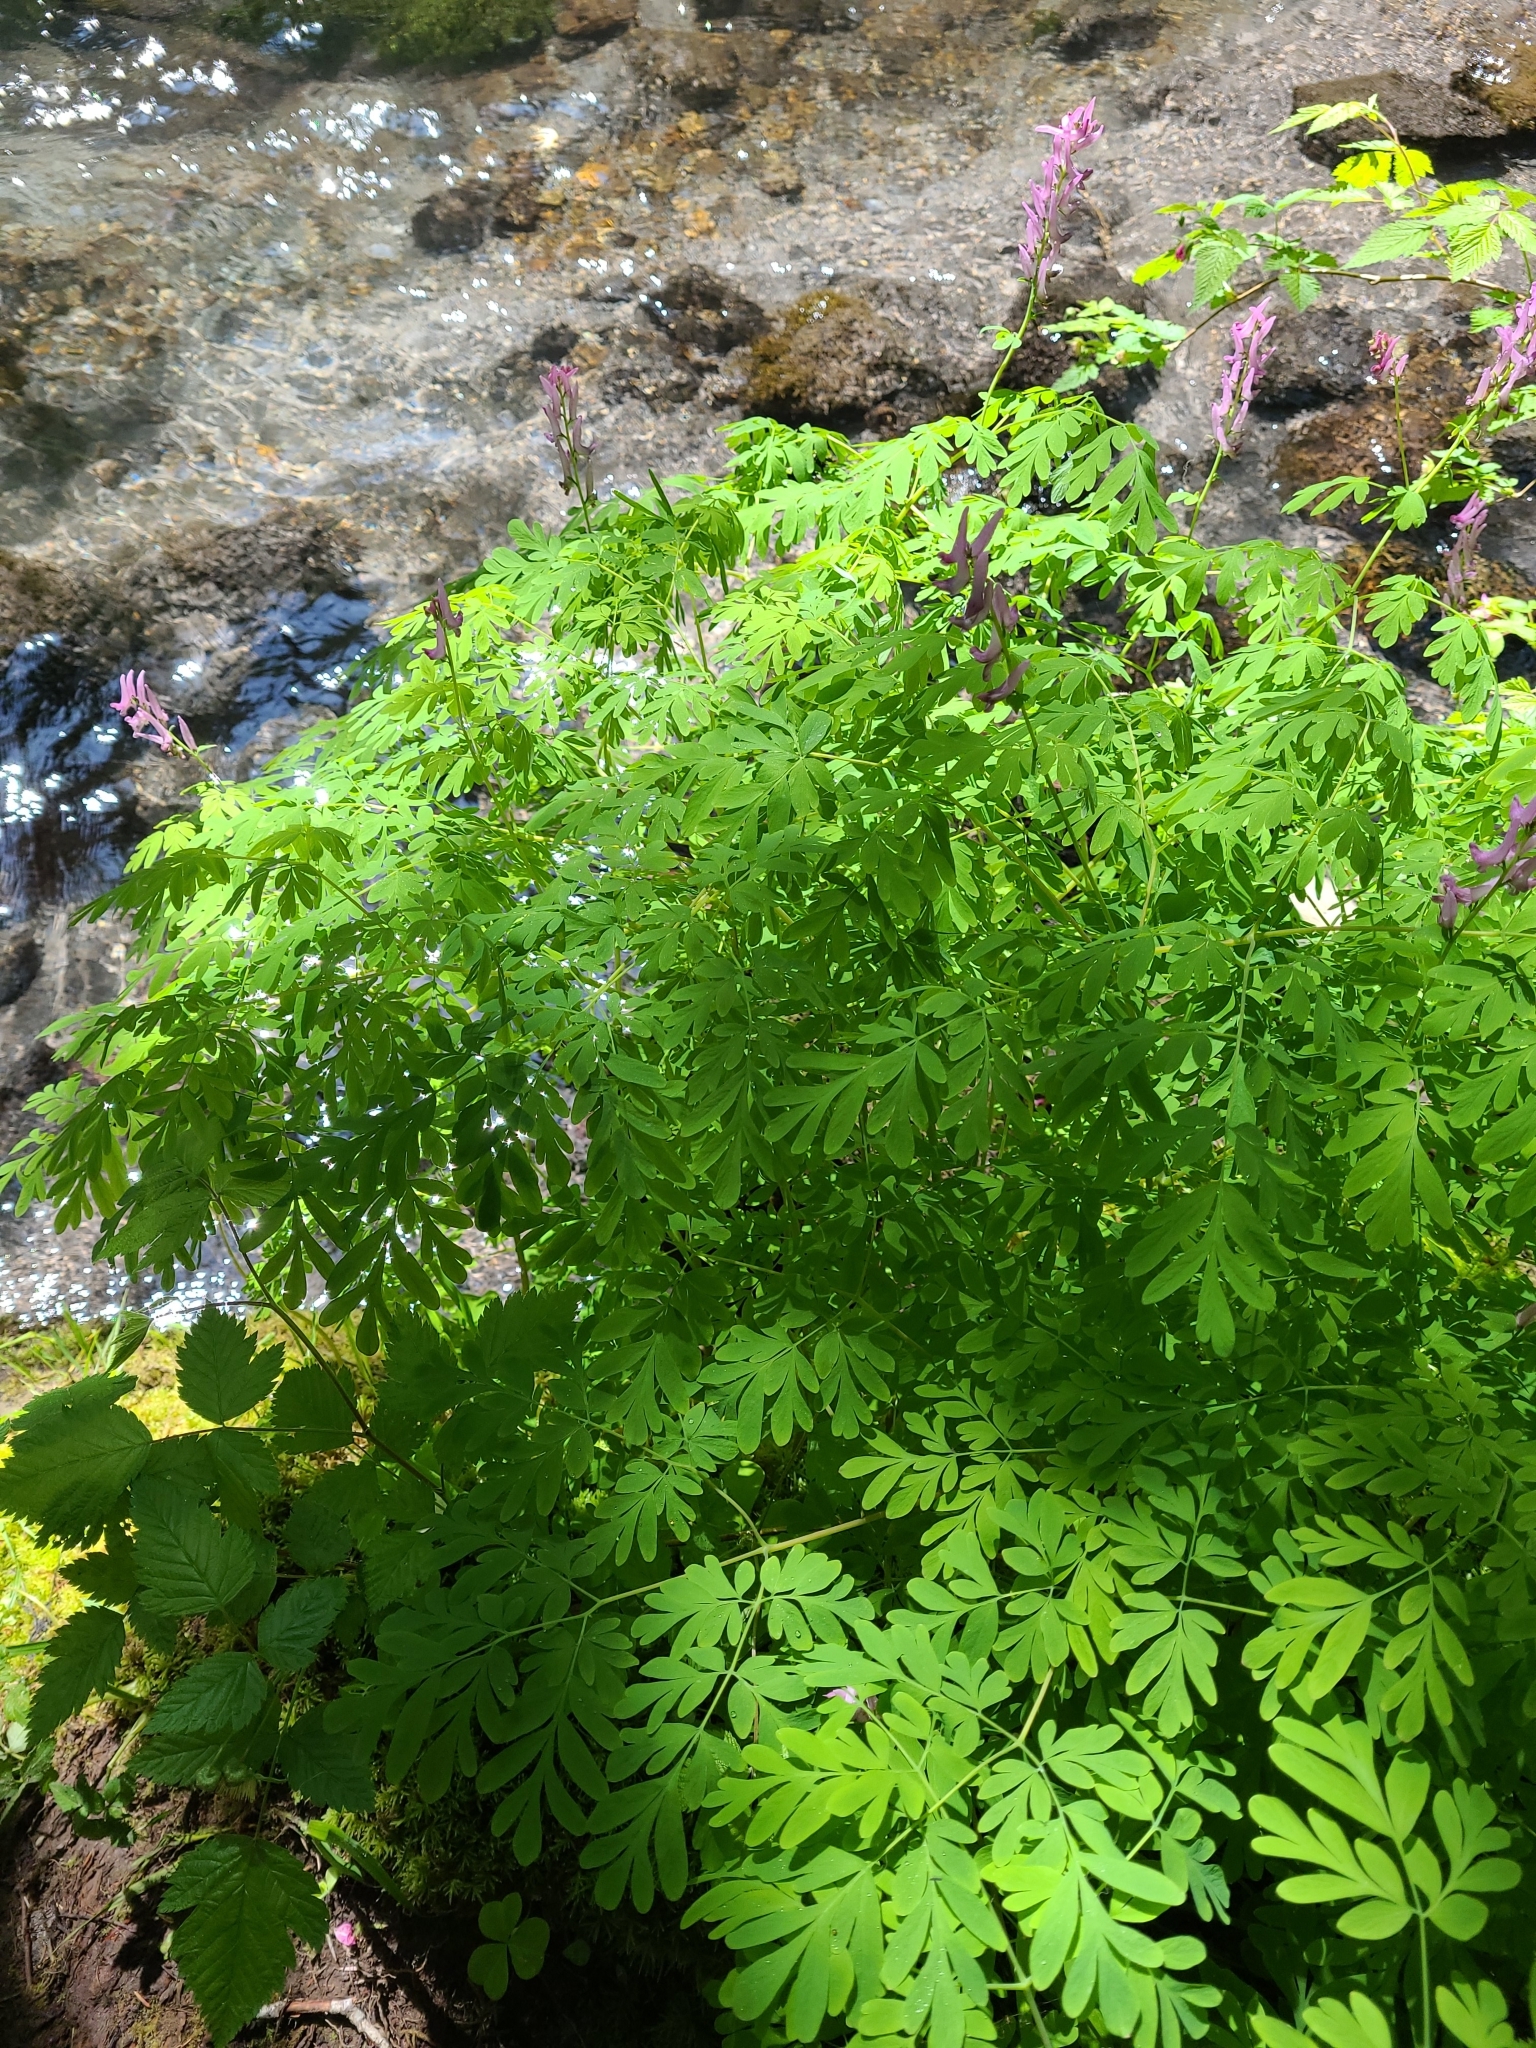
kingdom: Plantae
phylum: Tracheophyta
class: Magnoliopsida
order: Ranunculales
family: Papaveraceae
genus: Corydalis
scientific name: Corydalis scouleri
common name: Scouler's corydalis
